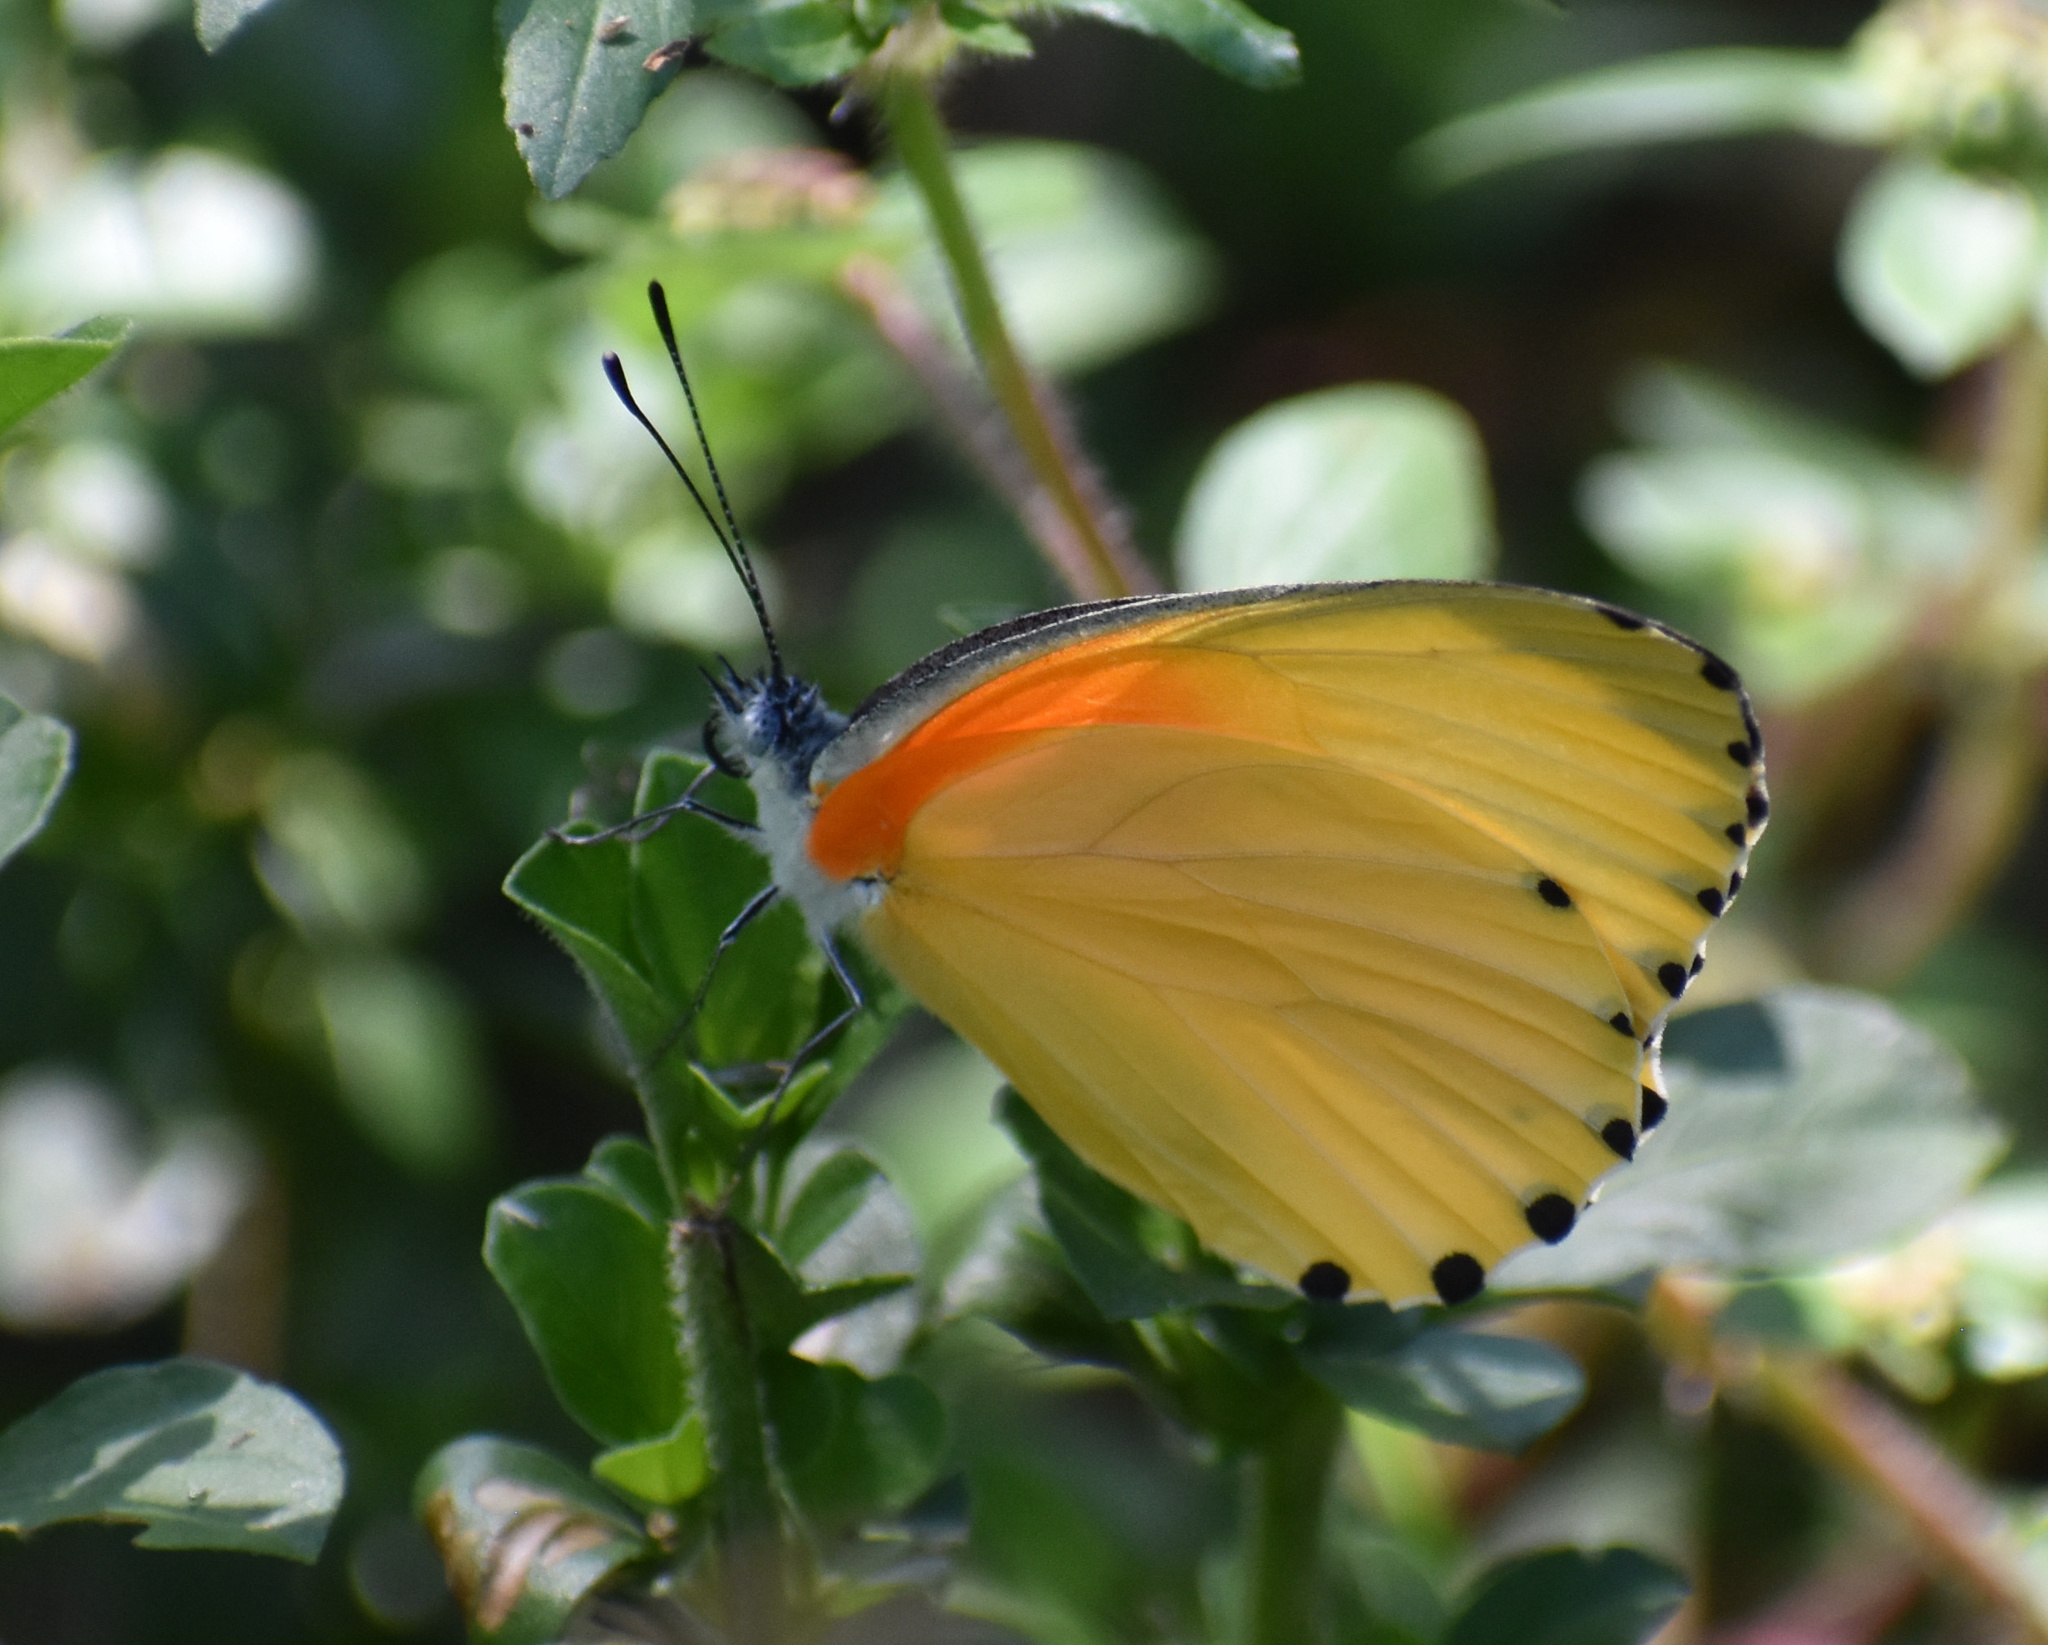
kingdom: Animalia
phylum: Arthropoda
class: Insecta
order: Lepidoptera
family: Pieridae
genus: Mylothris
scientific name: Mylothris rueppellii
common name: Twin dotted border
